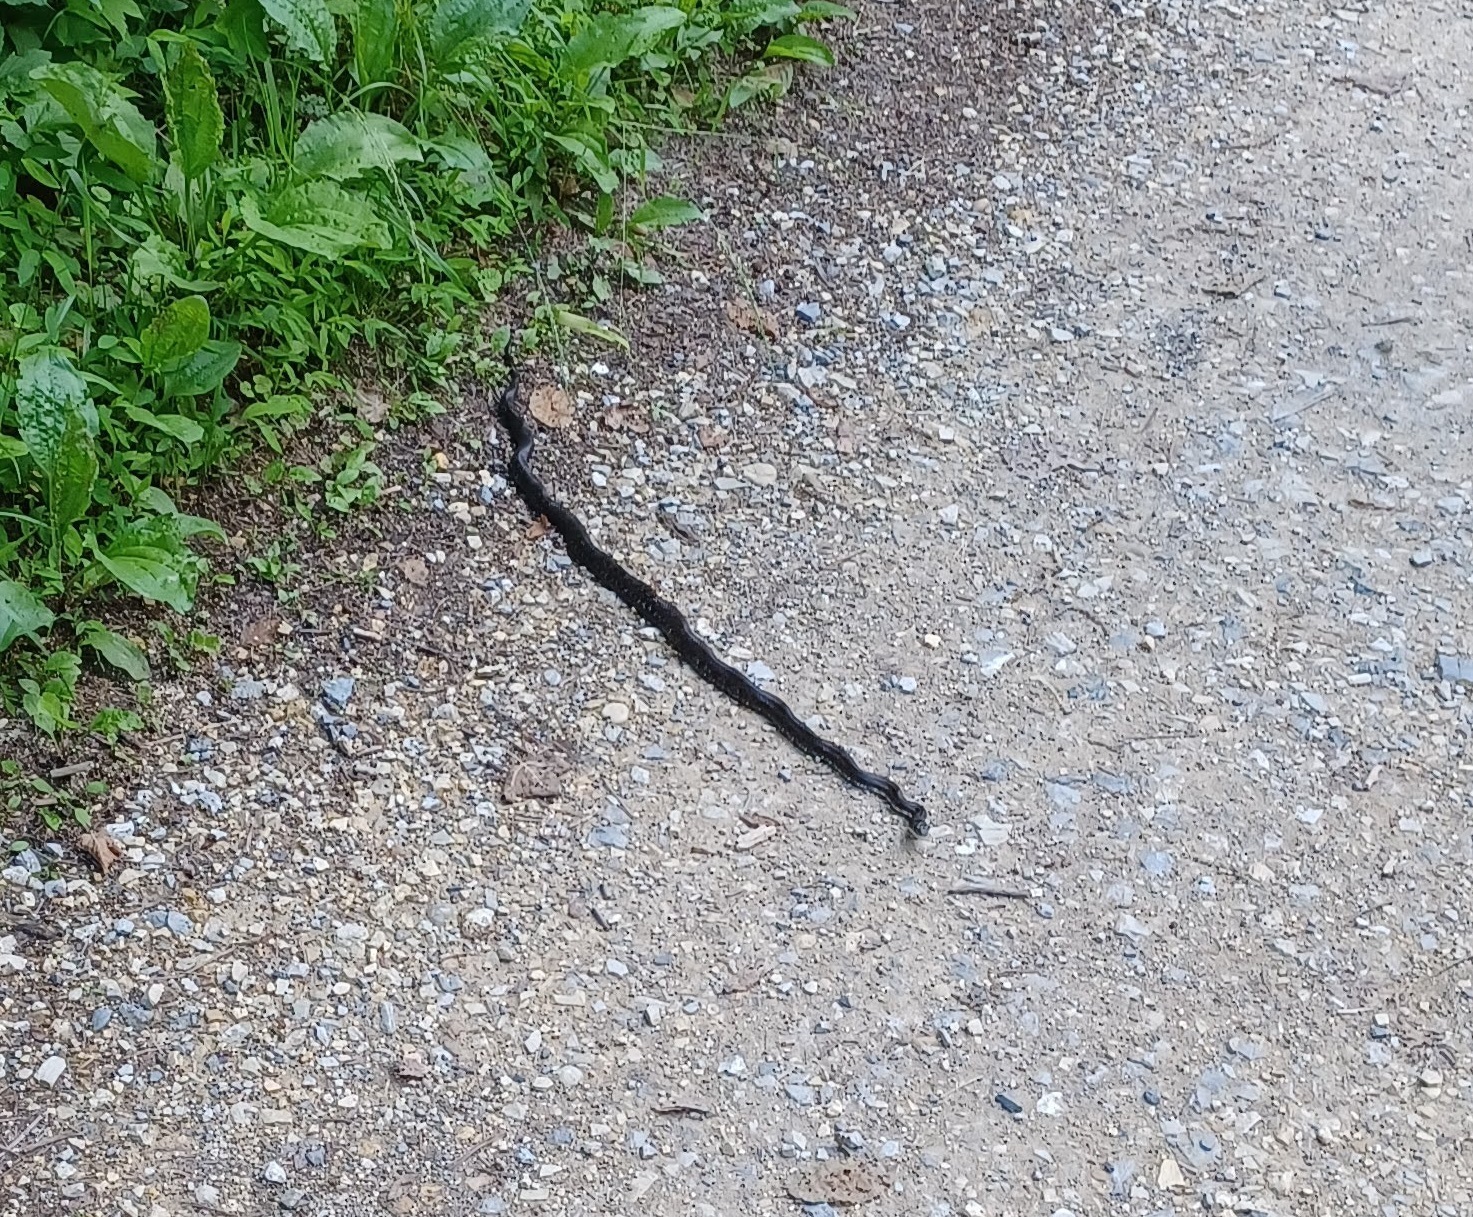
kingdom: Animalia
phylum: Chordata
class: Squamata
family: Colubridae
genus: Pantherophis
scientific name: Pantherophis alleghaniensis
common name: Eastern rat snake
